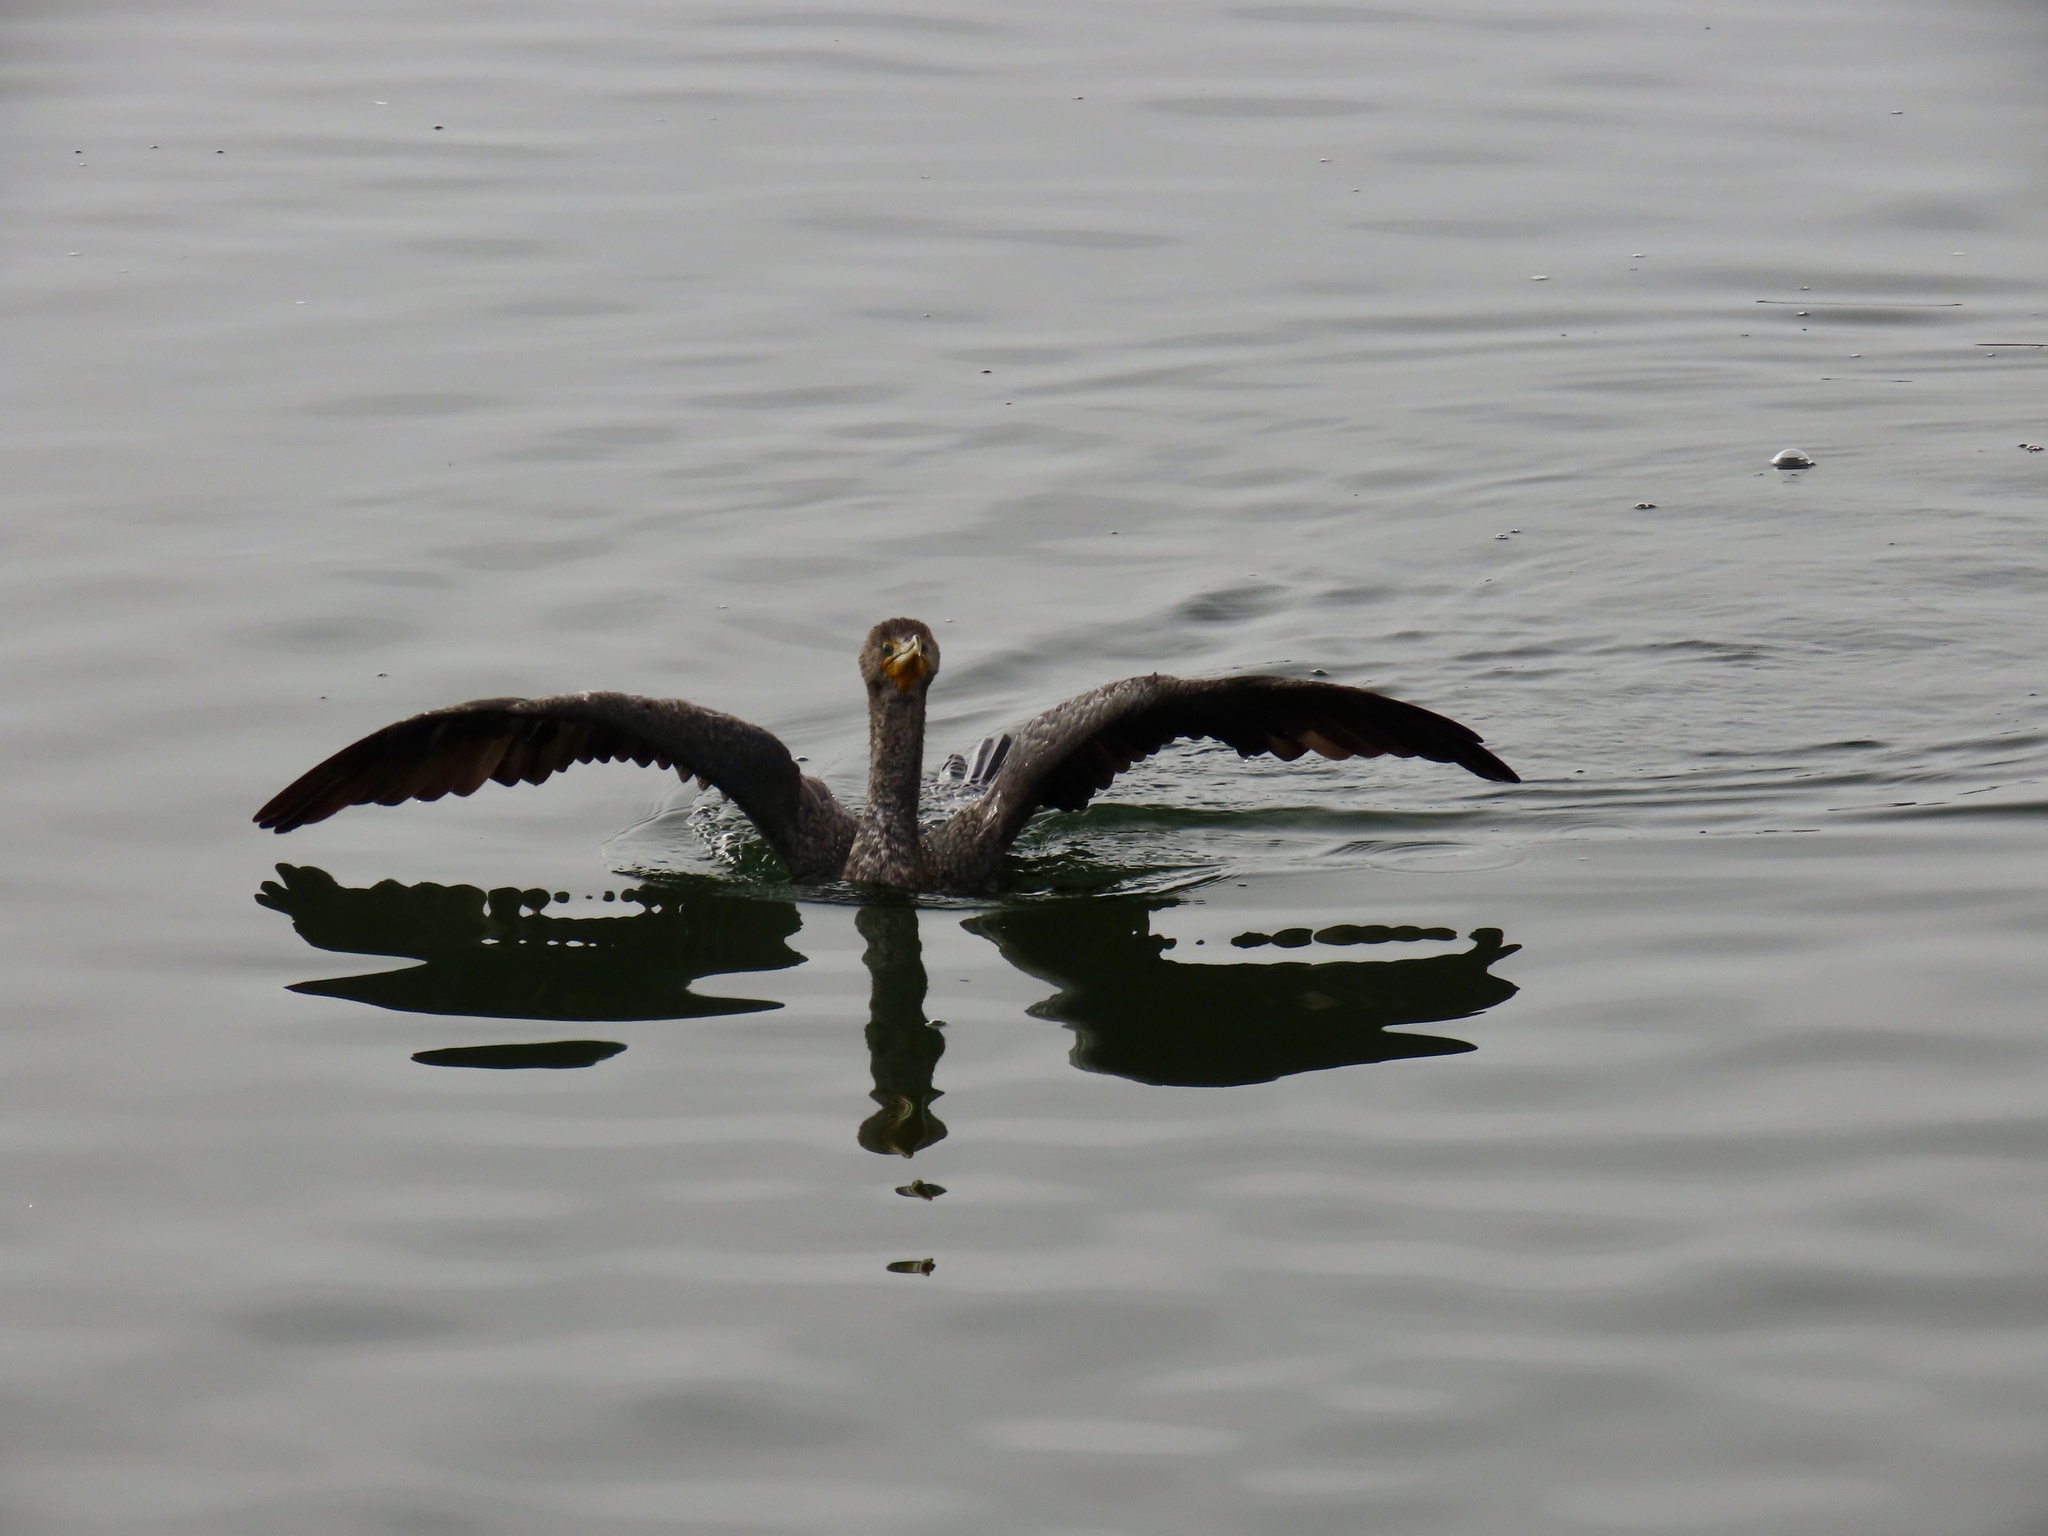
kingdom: Animalia
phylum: Chordata
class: Aves
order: Suliformes
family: Phalacrocoracidae
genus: Phalacrocorax
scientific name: Phalacrocorax auritus
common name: Double-crested cormorant
